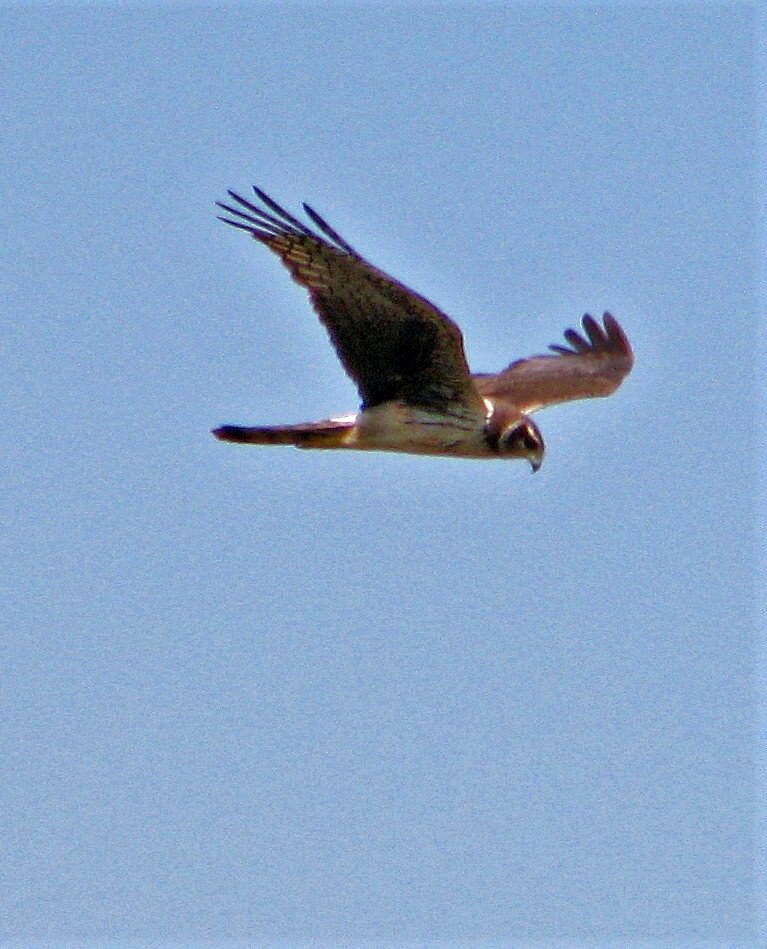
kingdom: Animalia
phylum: Chordata
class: Aves
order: Accipitriformes
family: Accipitridae
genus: Circus
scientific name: Circus buffoni
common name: Long-winged harrier
